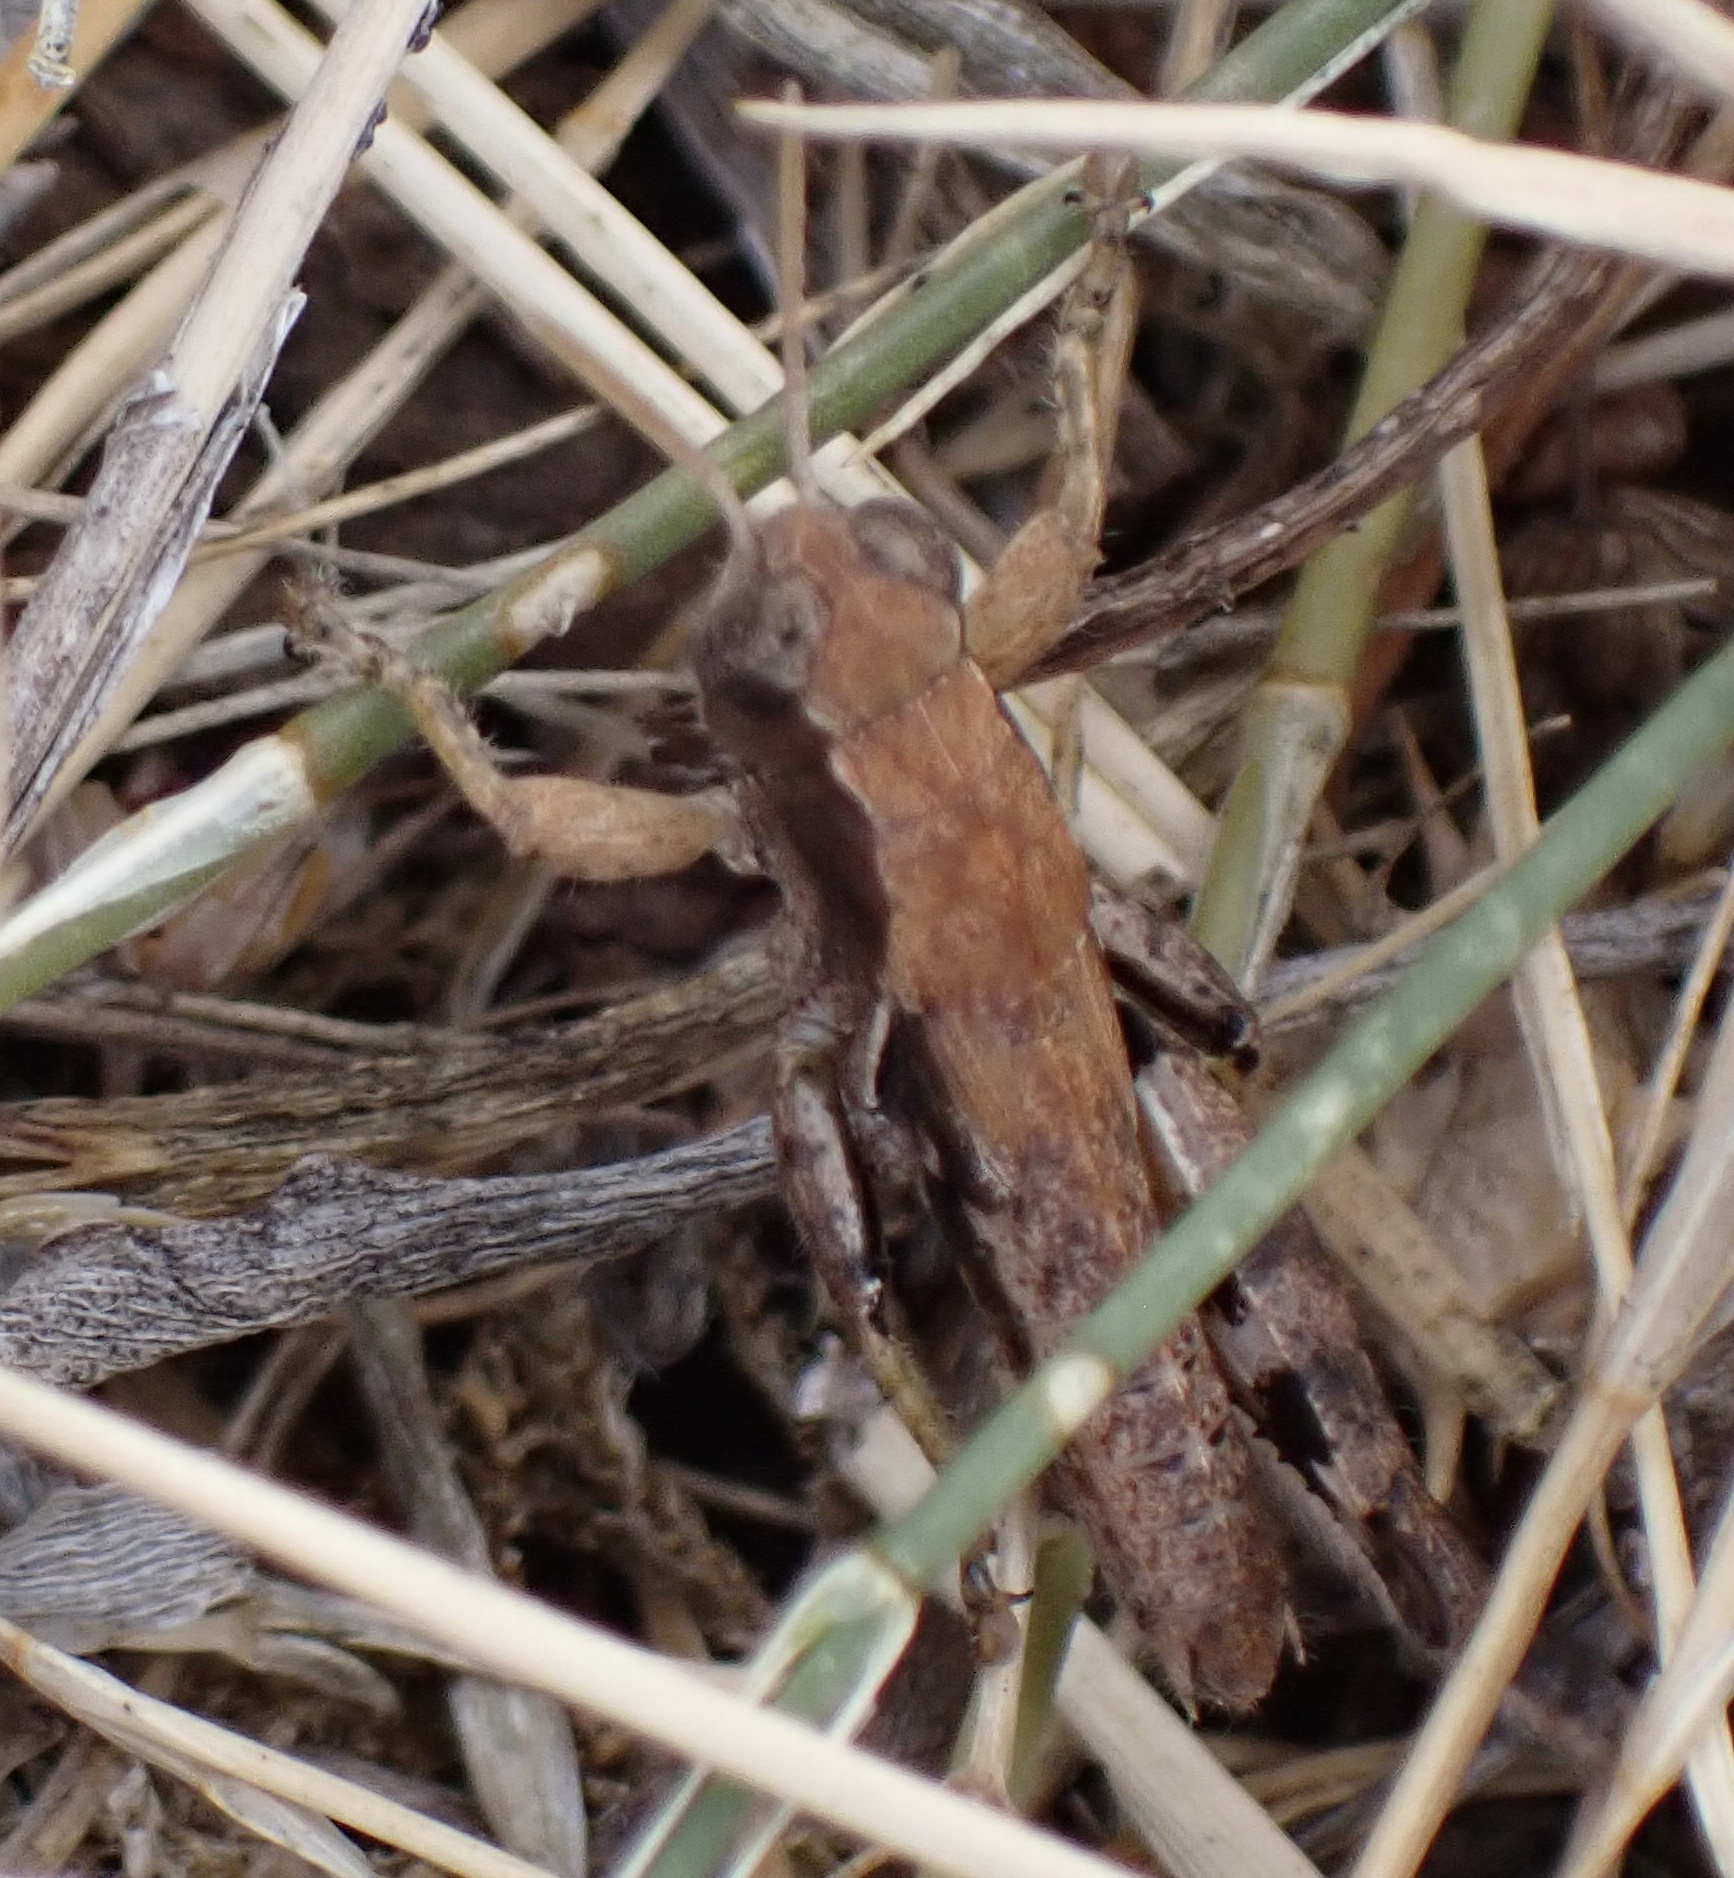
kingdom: Animalia
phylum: Arthropoda
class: Insecta
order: Orthoptera
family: Acrididae
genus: Pezotettix
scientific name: Pezotettix giornae
